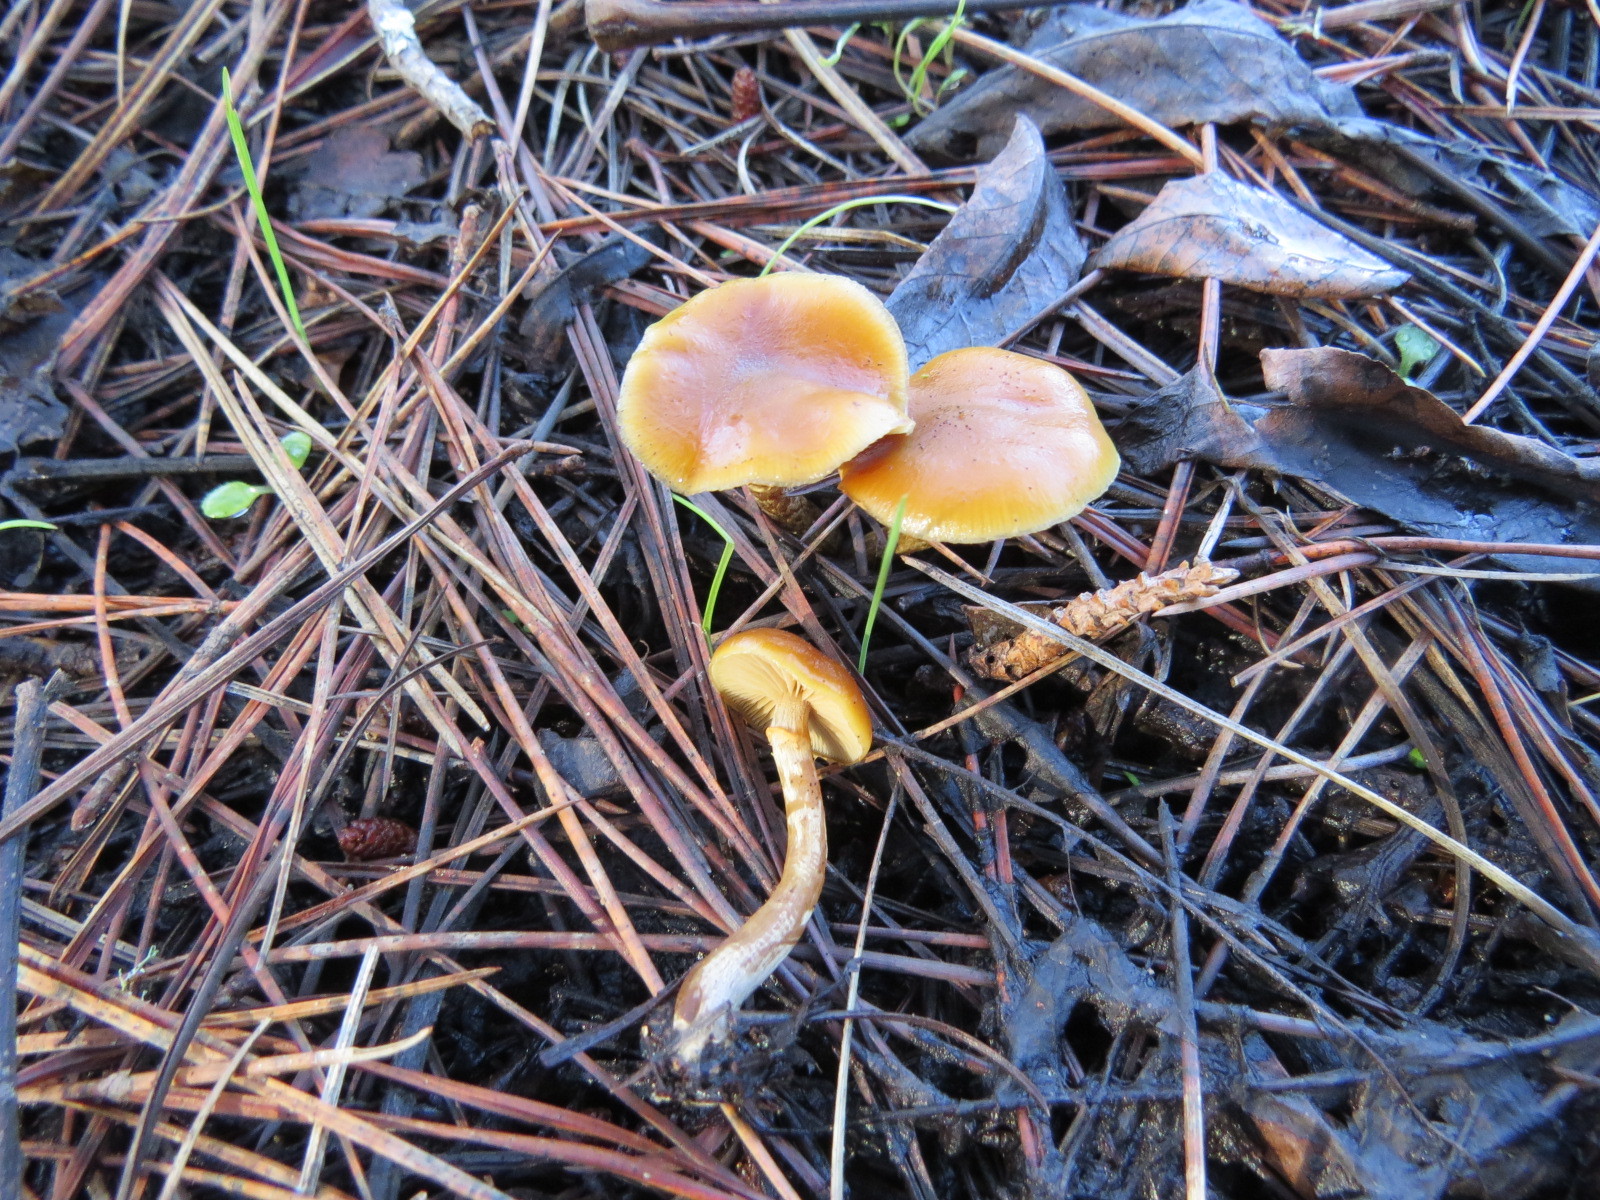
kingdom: Fungi
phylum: Basidiomycota
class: Agaricomycetes
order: Agaricales
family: Hymenogastraceae
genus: Galerina
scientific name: Galerina marginata
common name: Funeral bell
